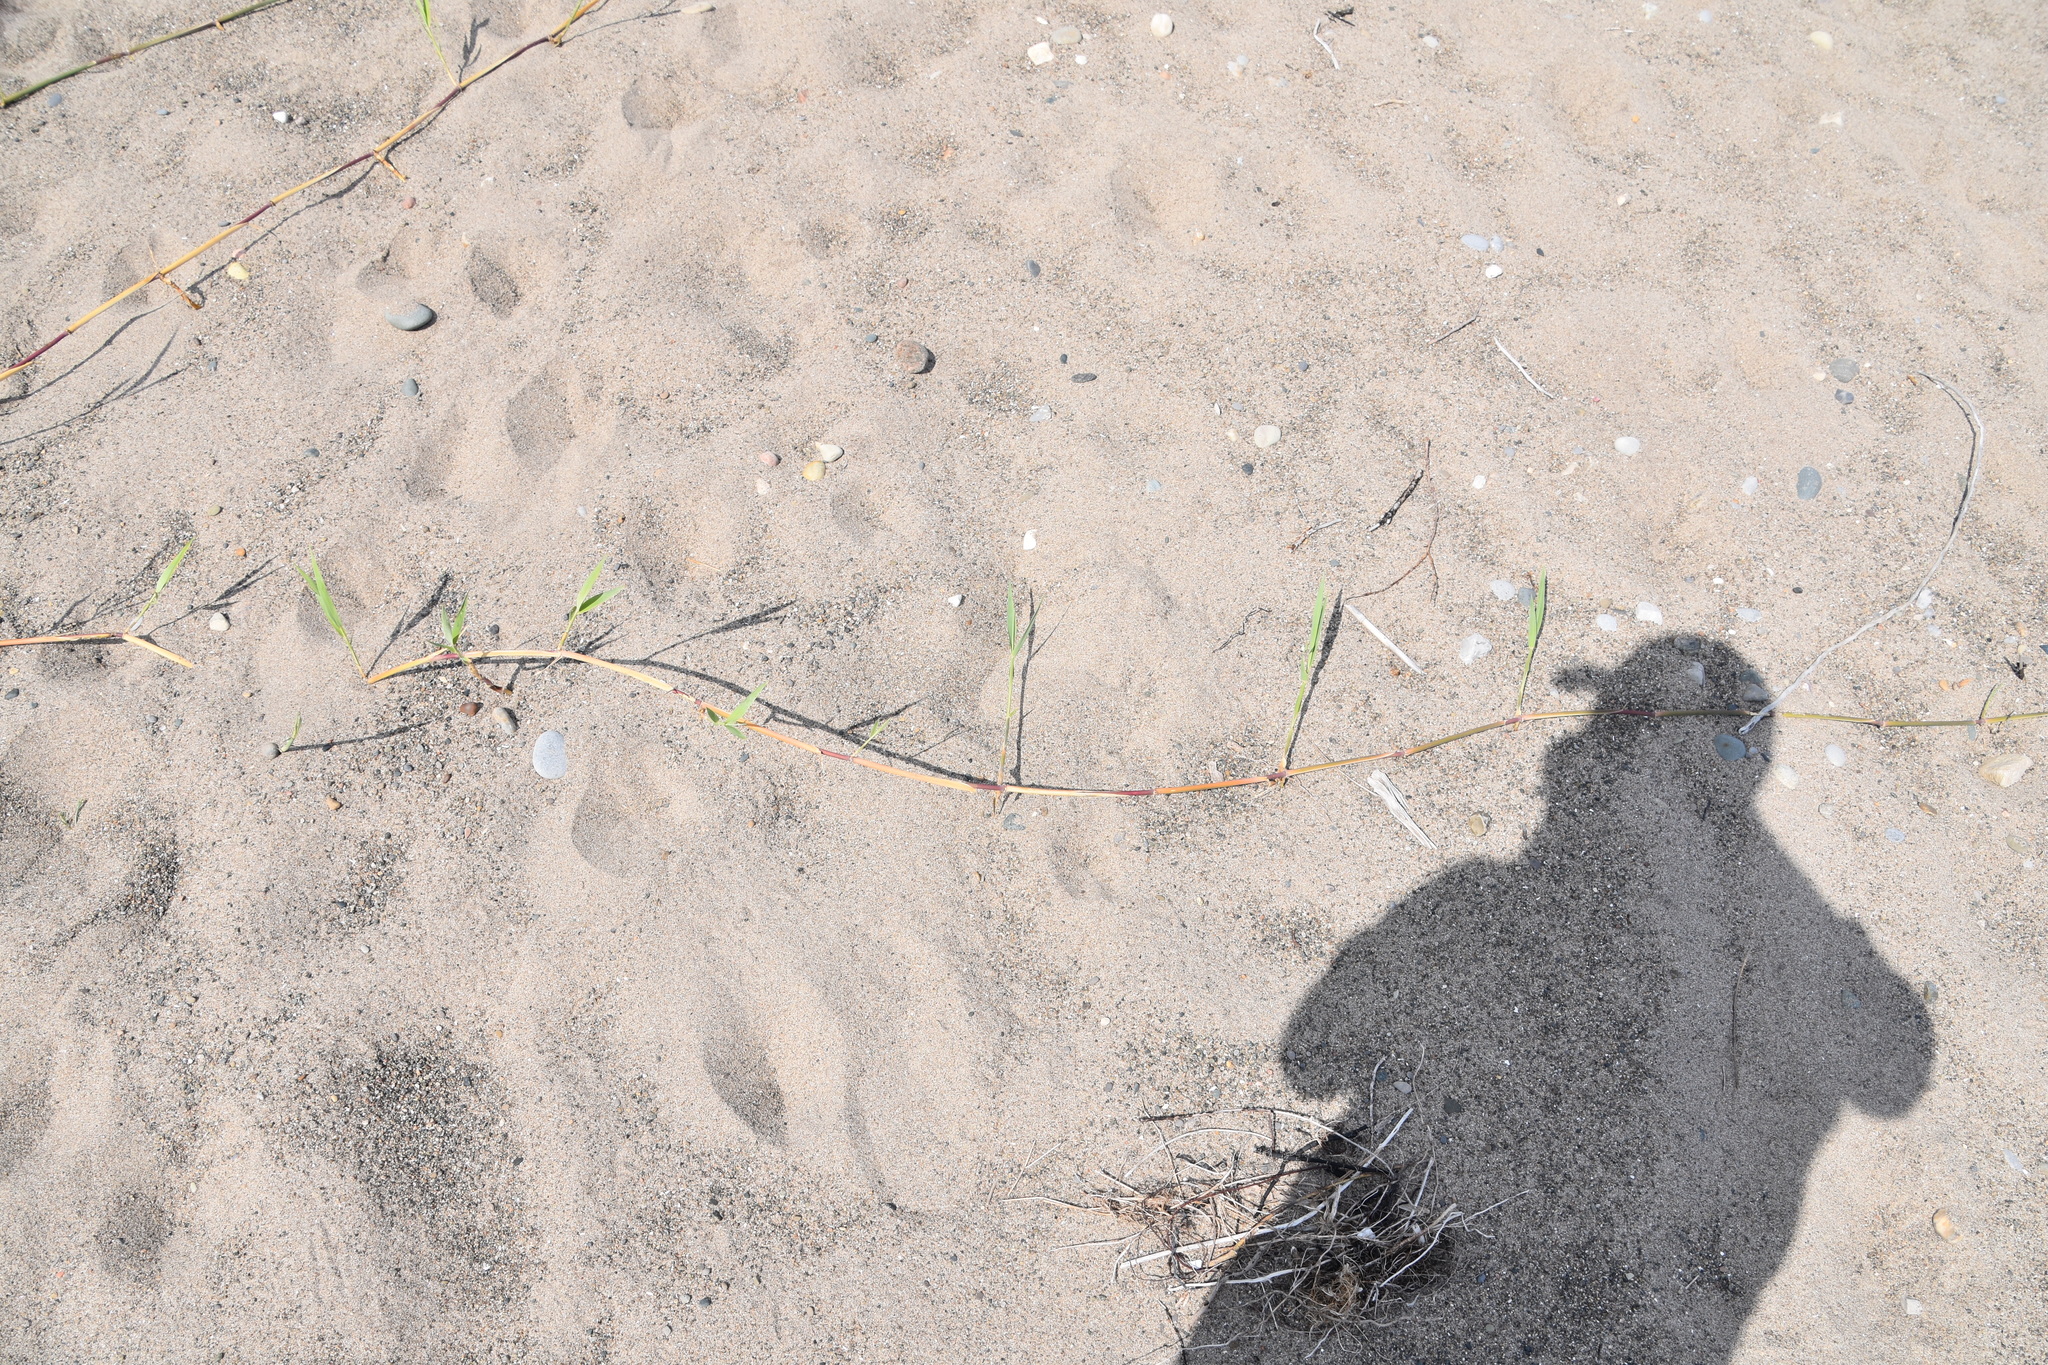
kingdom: Plantae
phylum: Tracheophyta
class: Liliopsida
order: Poales
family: Poaceae
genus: Phragmites
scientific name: Phragmites australis
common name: Common reed
